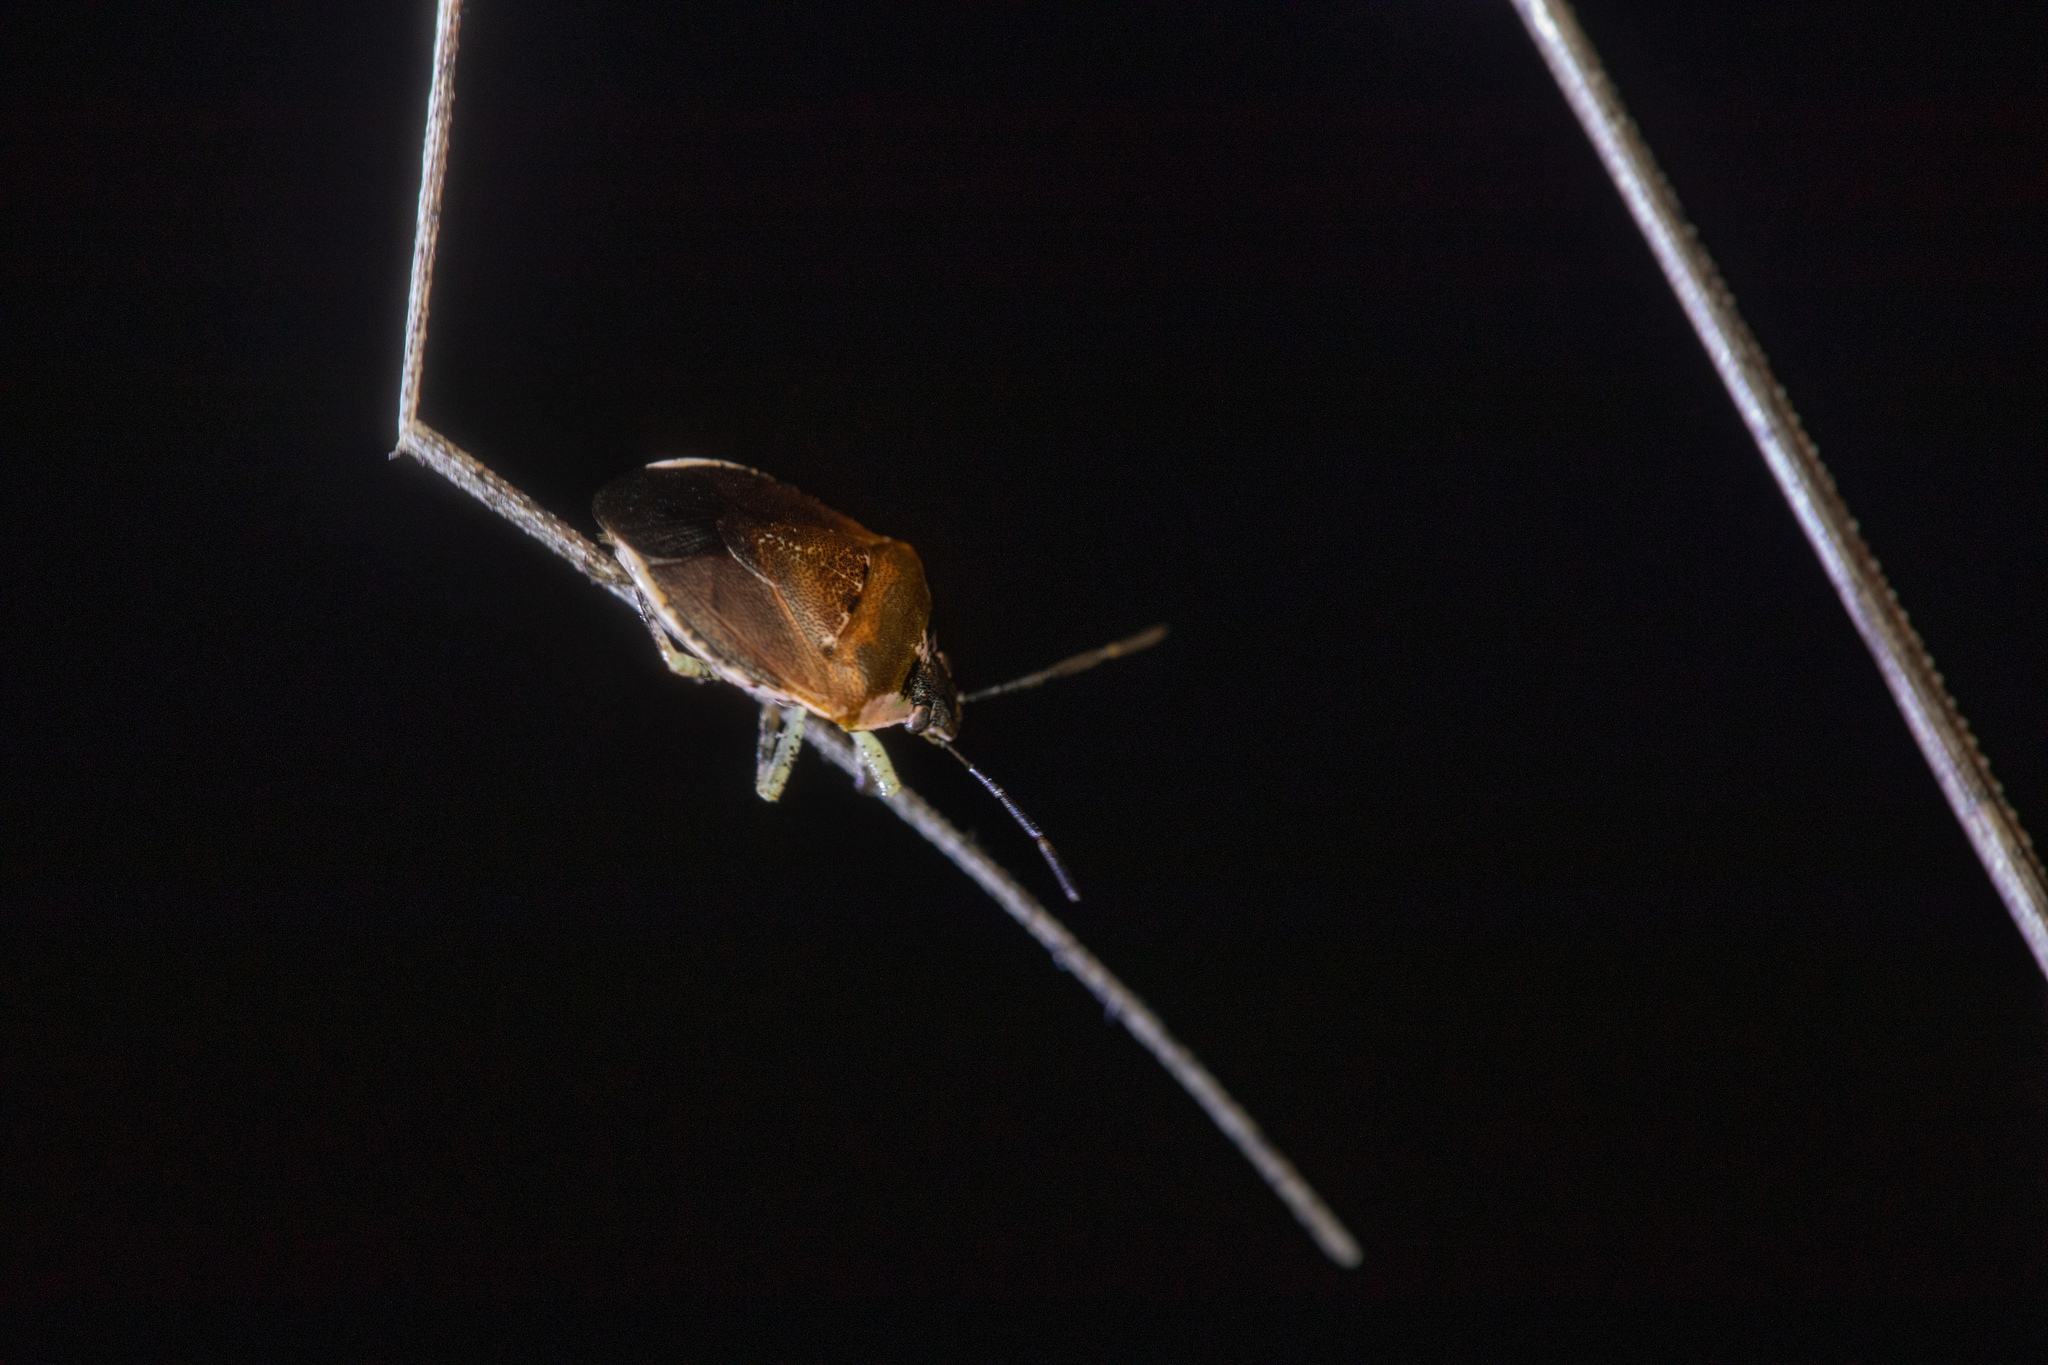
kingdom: Animalia
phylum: Arthropoda
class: Insecta
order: Hemiptera
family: Pentatomidae
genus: Monteithiella
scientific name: Monteithiella
